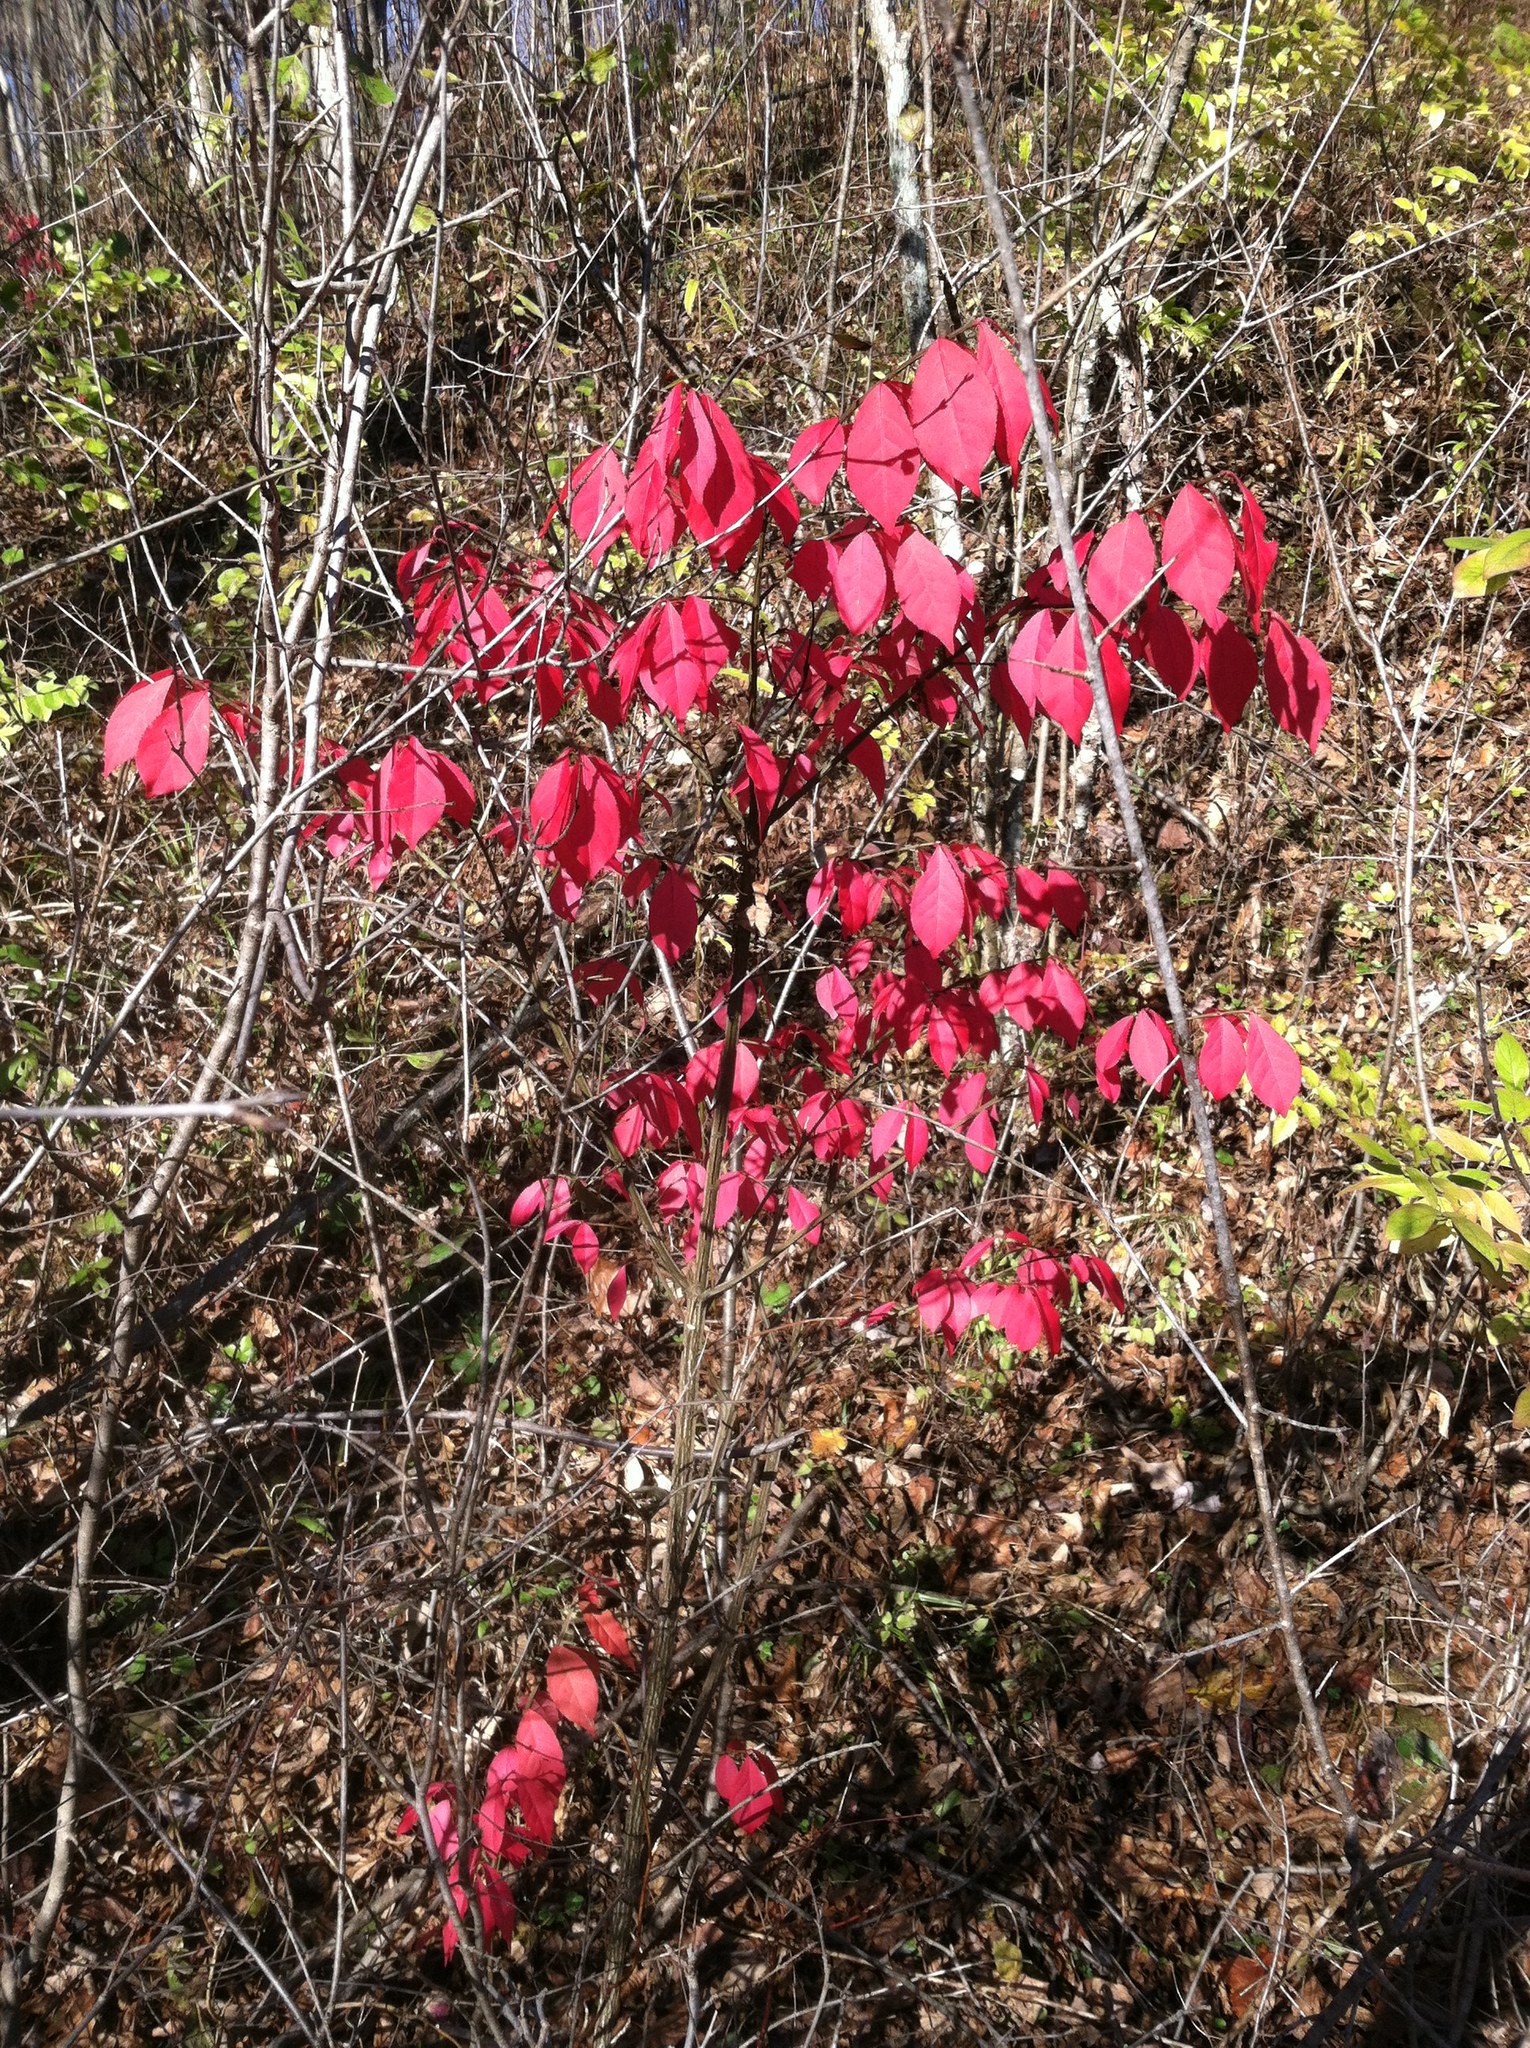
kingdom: Plantae
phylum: Tracheophyta
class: Magnoliopsida
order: Celastrales
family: Celastraceae
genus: Euonymus
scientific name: Euonymus alatus
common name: Winged euonymus
